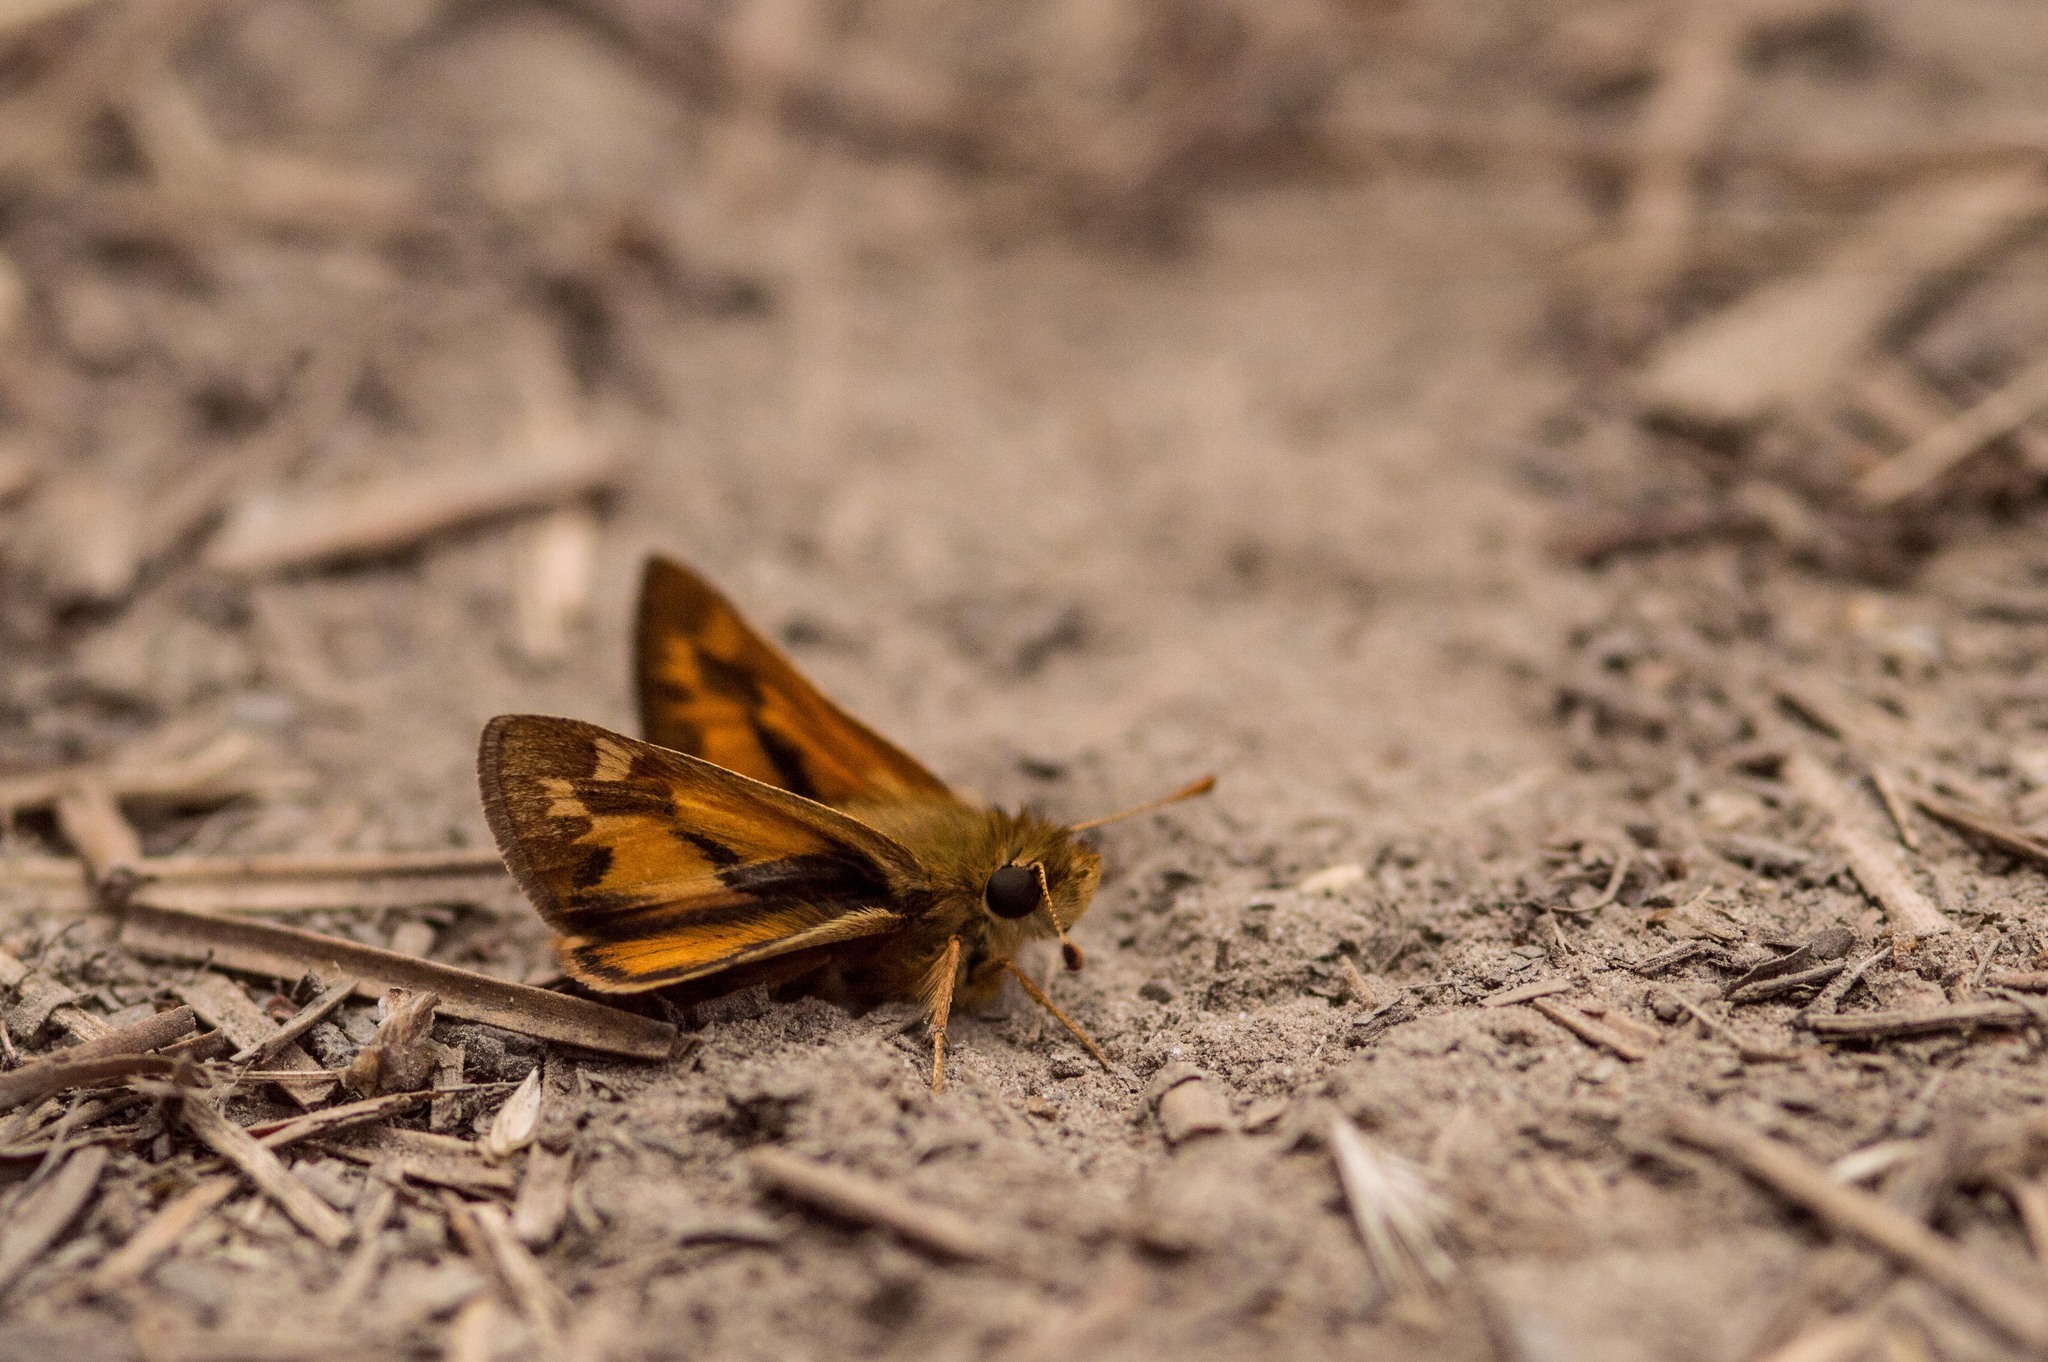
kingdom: Animalia
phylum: Arthropoda
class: Insecta
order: Lepidoptera
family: Hesperiidae
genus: Ochlodes
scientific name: Ochlodes sylvanoides
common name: Woodland skipper
